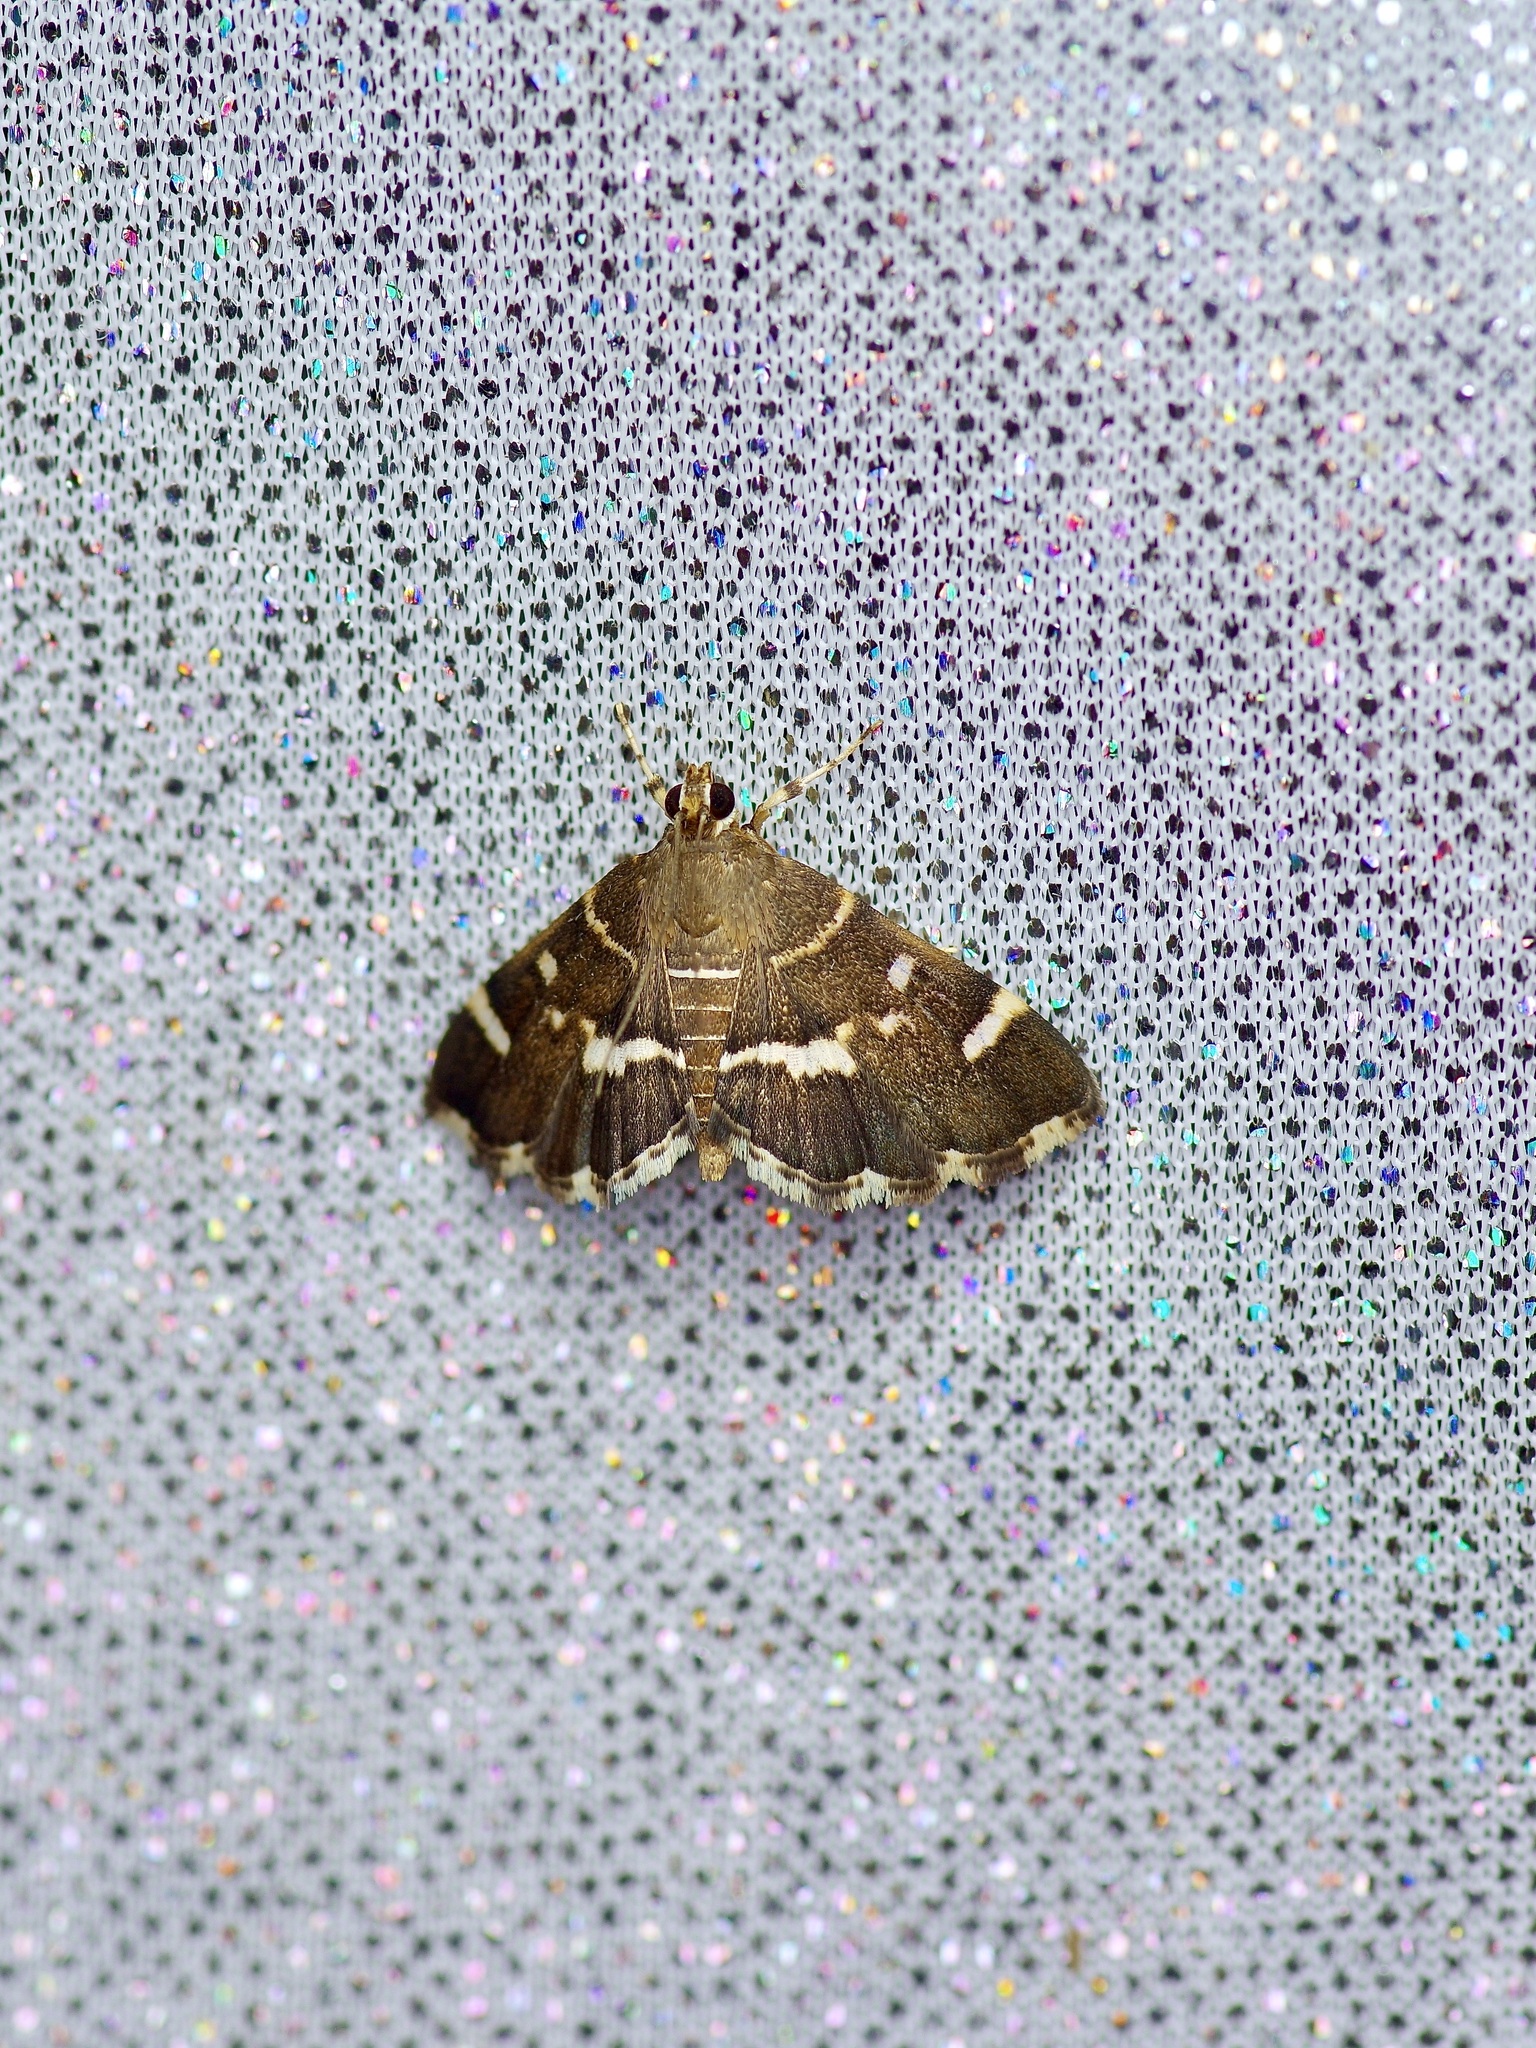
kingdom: Animalia
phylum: Arthropoda
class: Insecta
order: Lepidoptera
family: Crambidae
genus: Hymenia
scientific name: Hymenia perspectalis
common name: Spotted beet webworm
